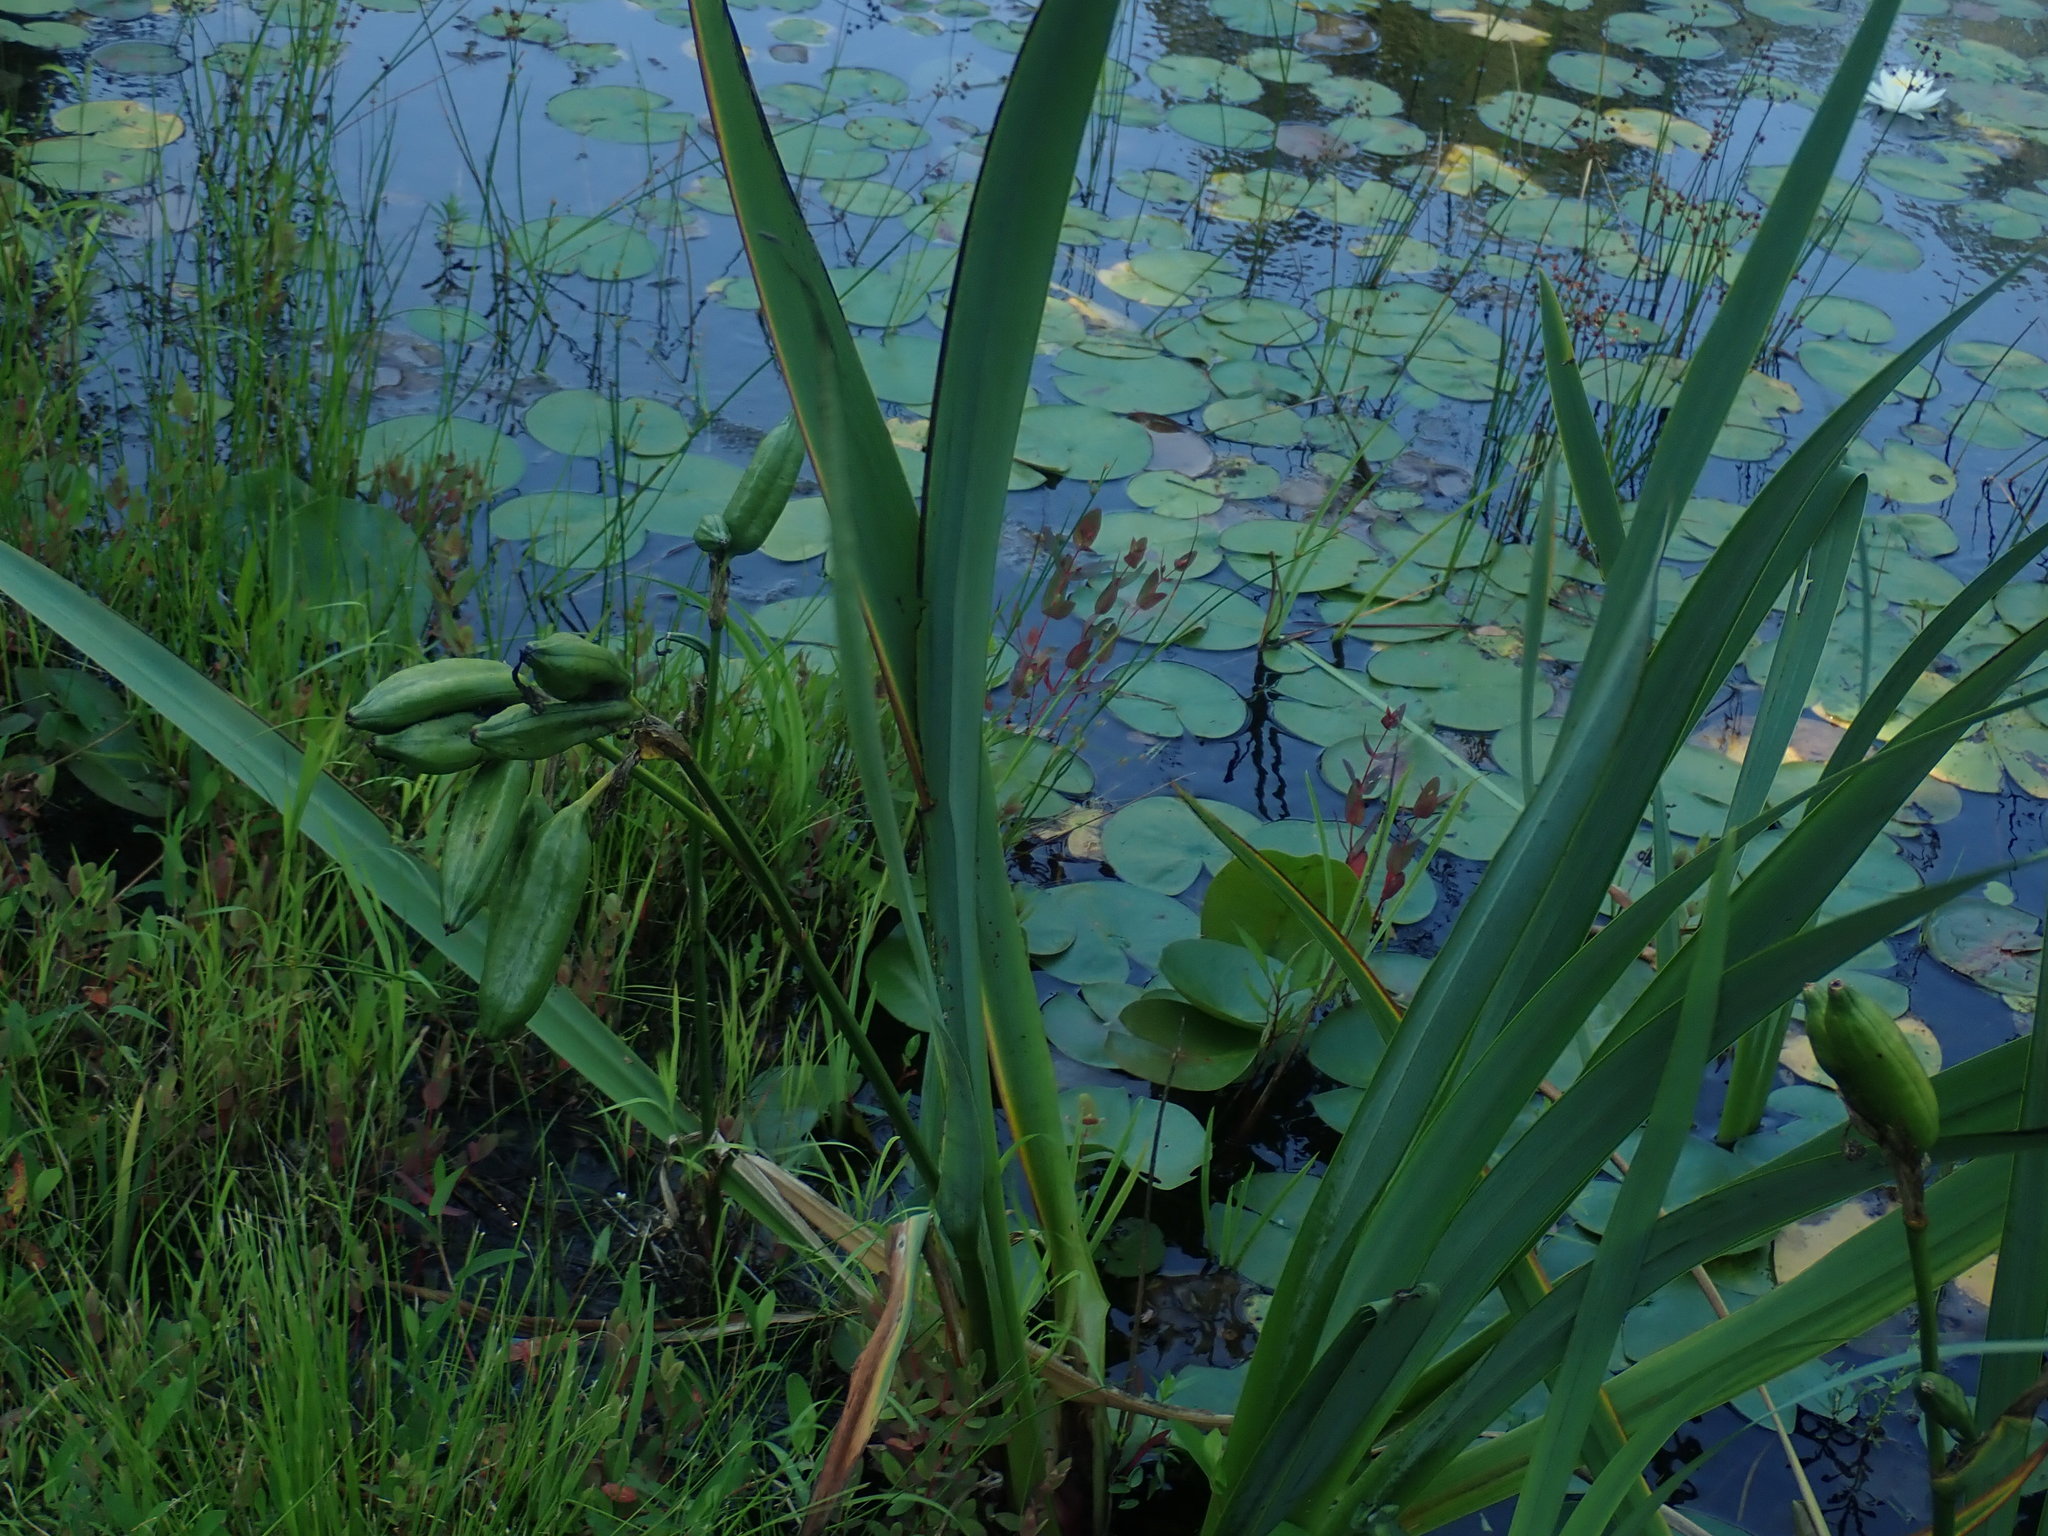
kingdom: Plantae
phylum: Tracheophyta
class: Liliopsida
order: Asparagales
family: Iridaceae
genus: Iris
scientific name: Iris pseudacorus
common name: Yellow flag
